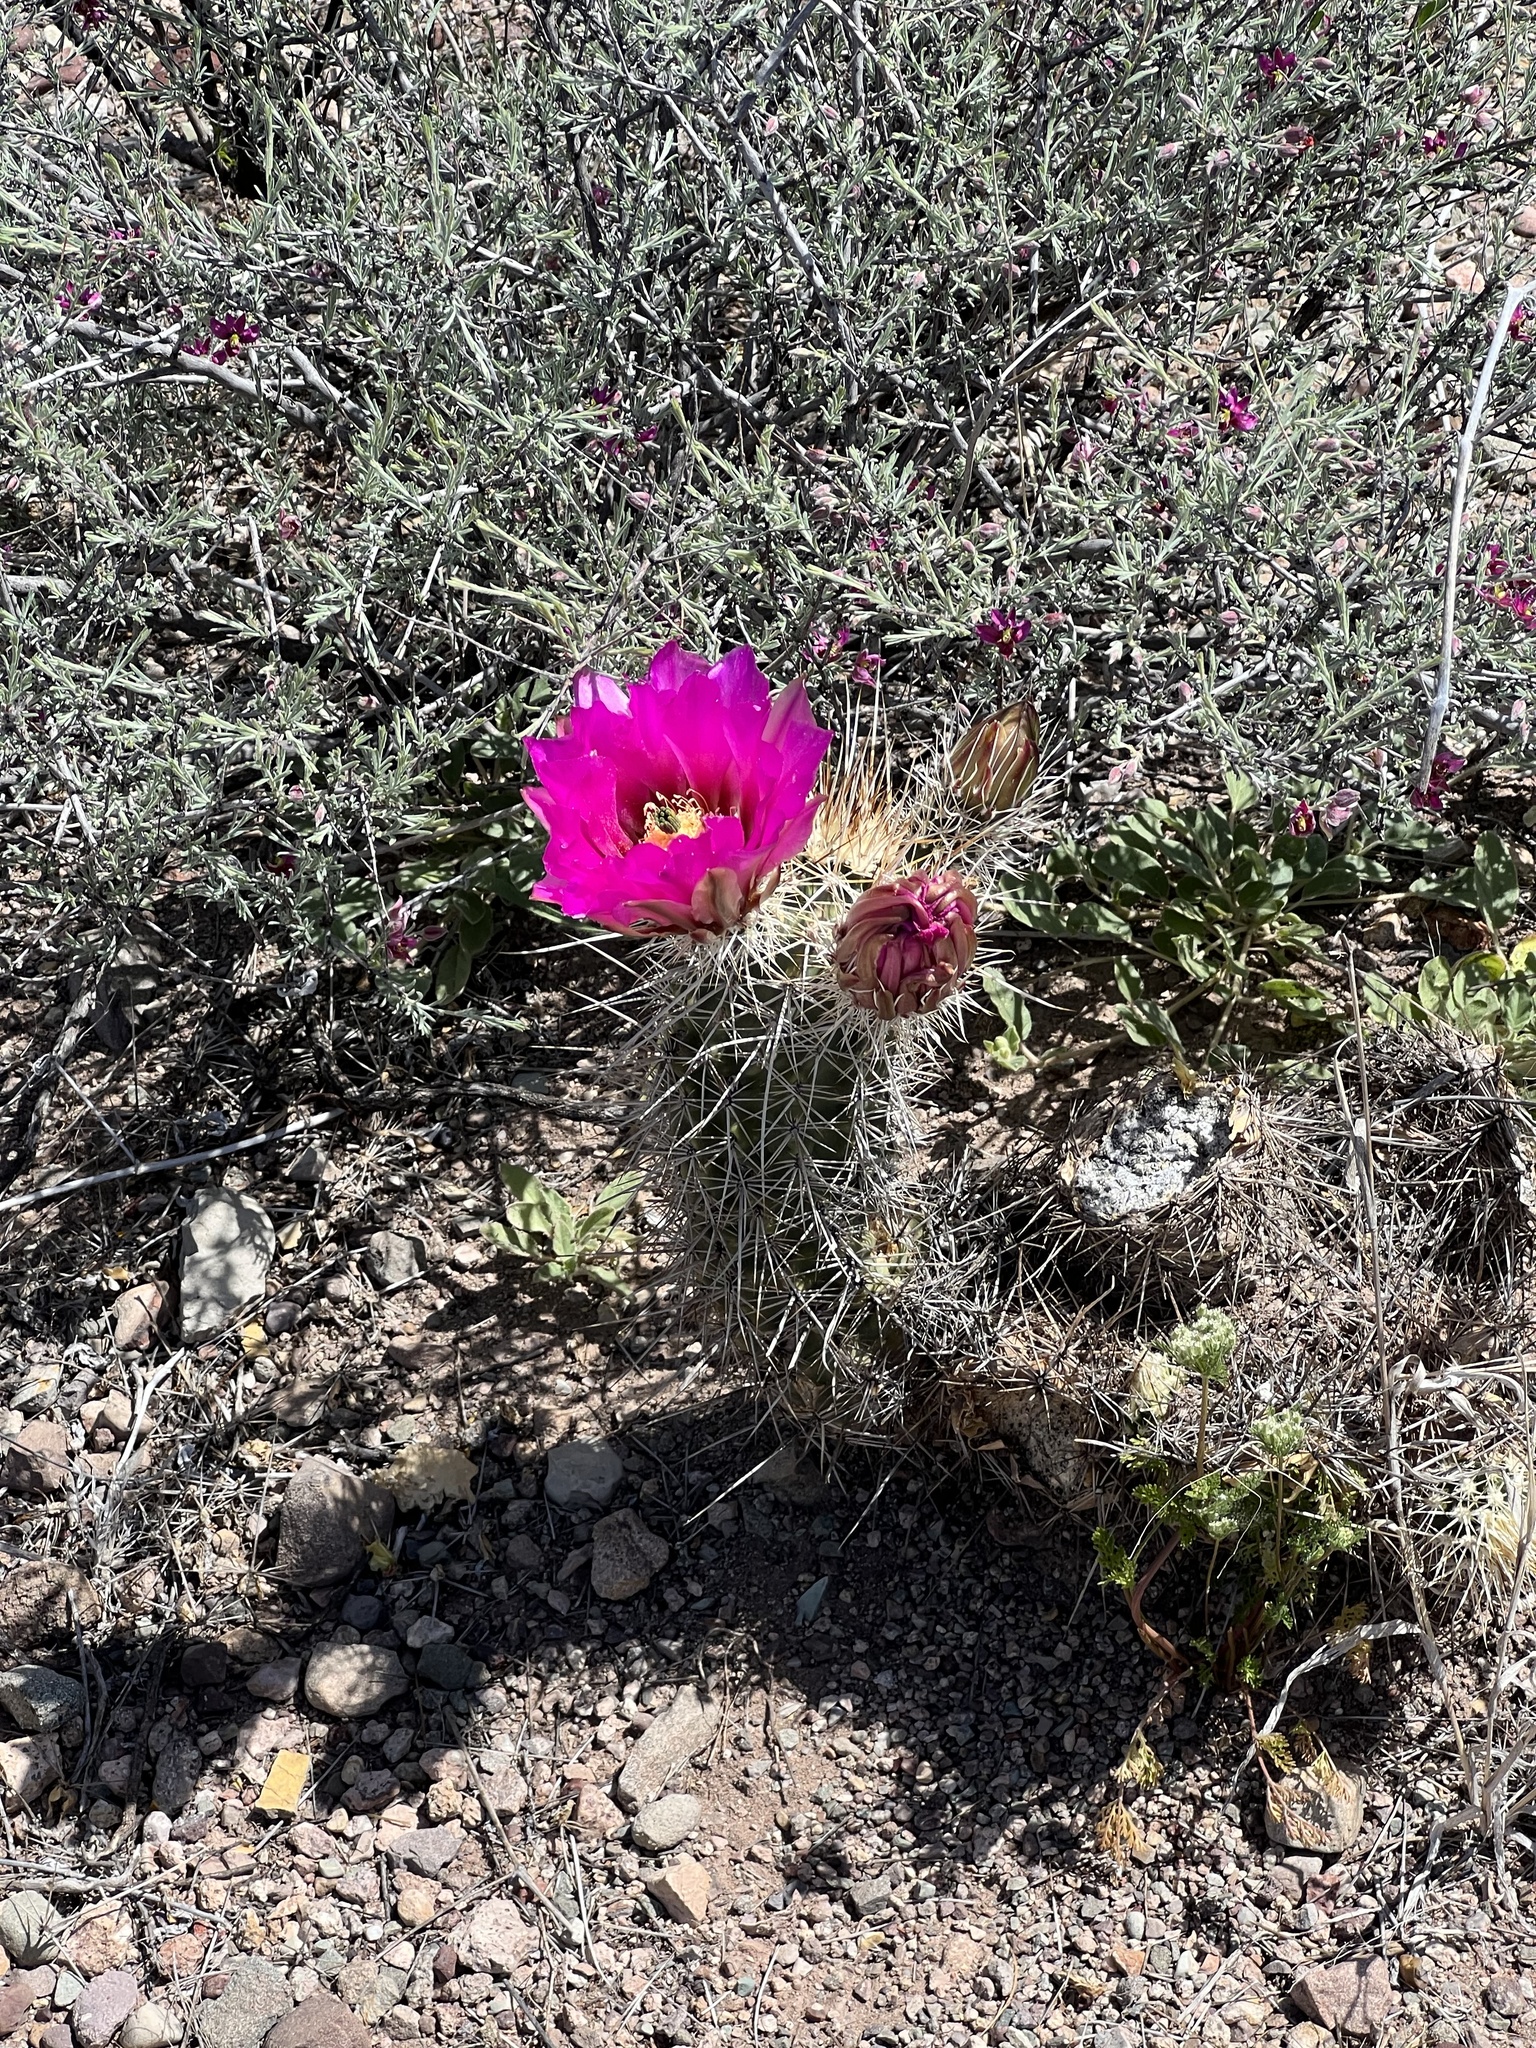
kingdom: Plantae
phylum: Tracheophyta
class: Magnoliopsida
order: Caryophyllales
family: Cactaceae
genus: Echinocereus
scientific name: Echinocereus fasciculatus
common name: Bundle hedgehog
